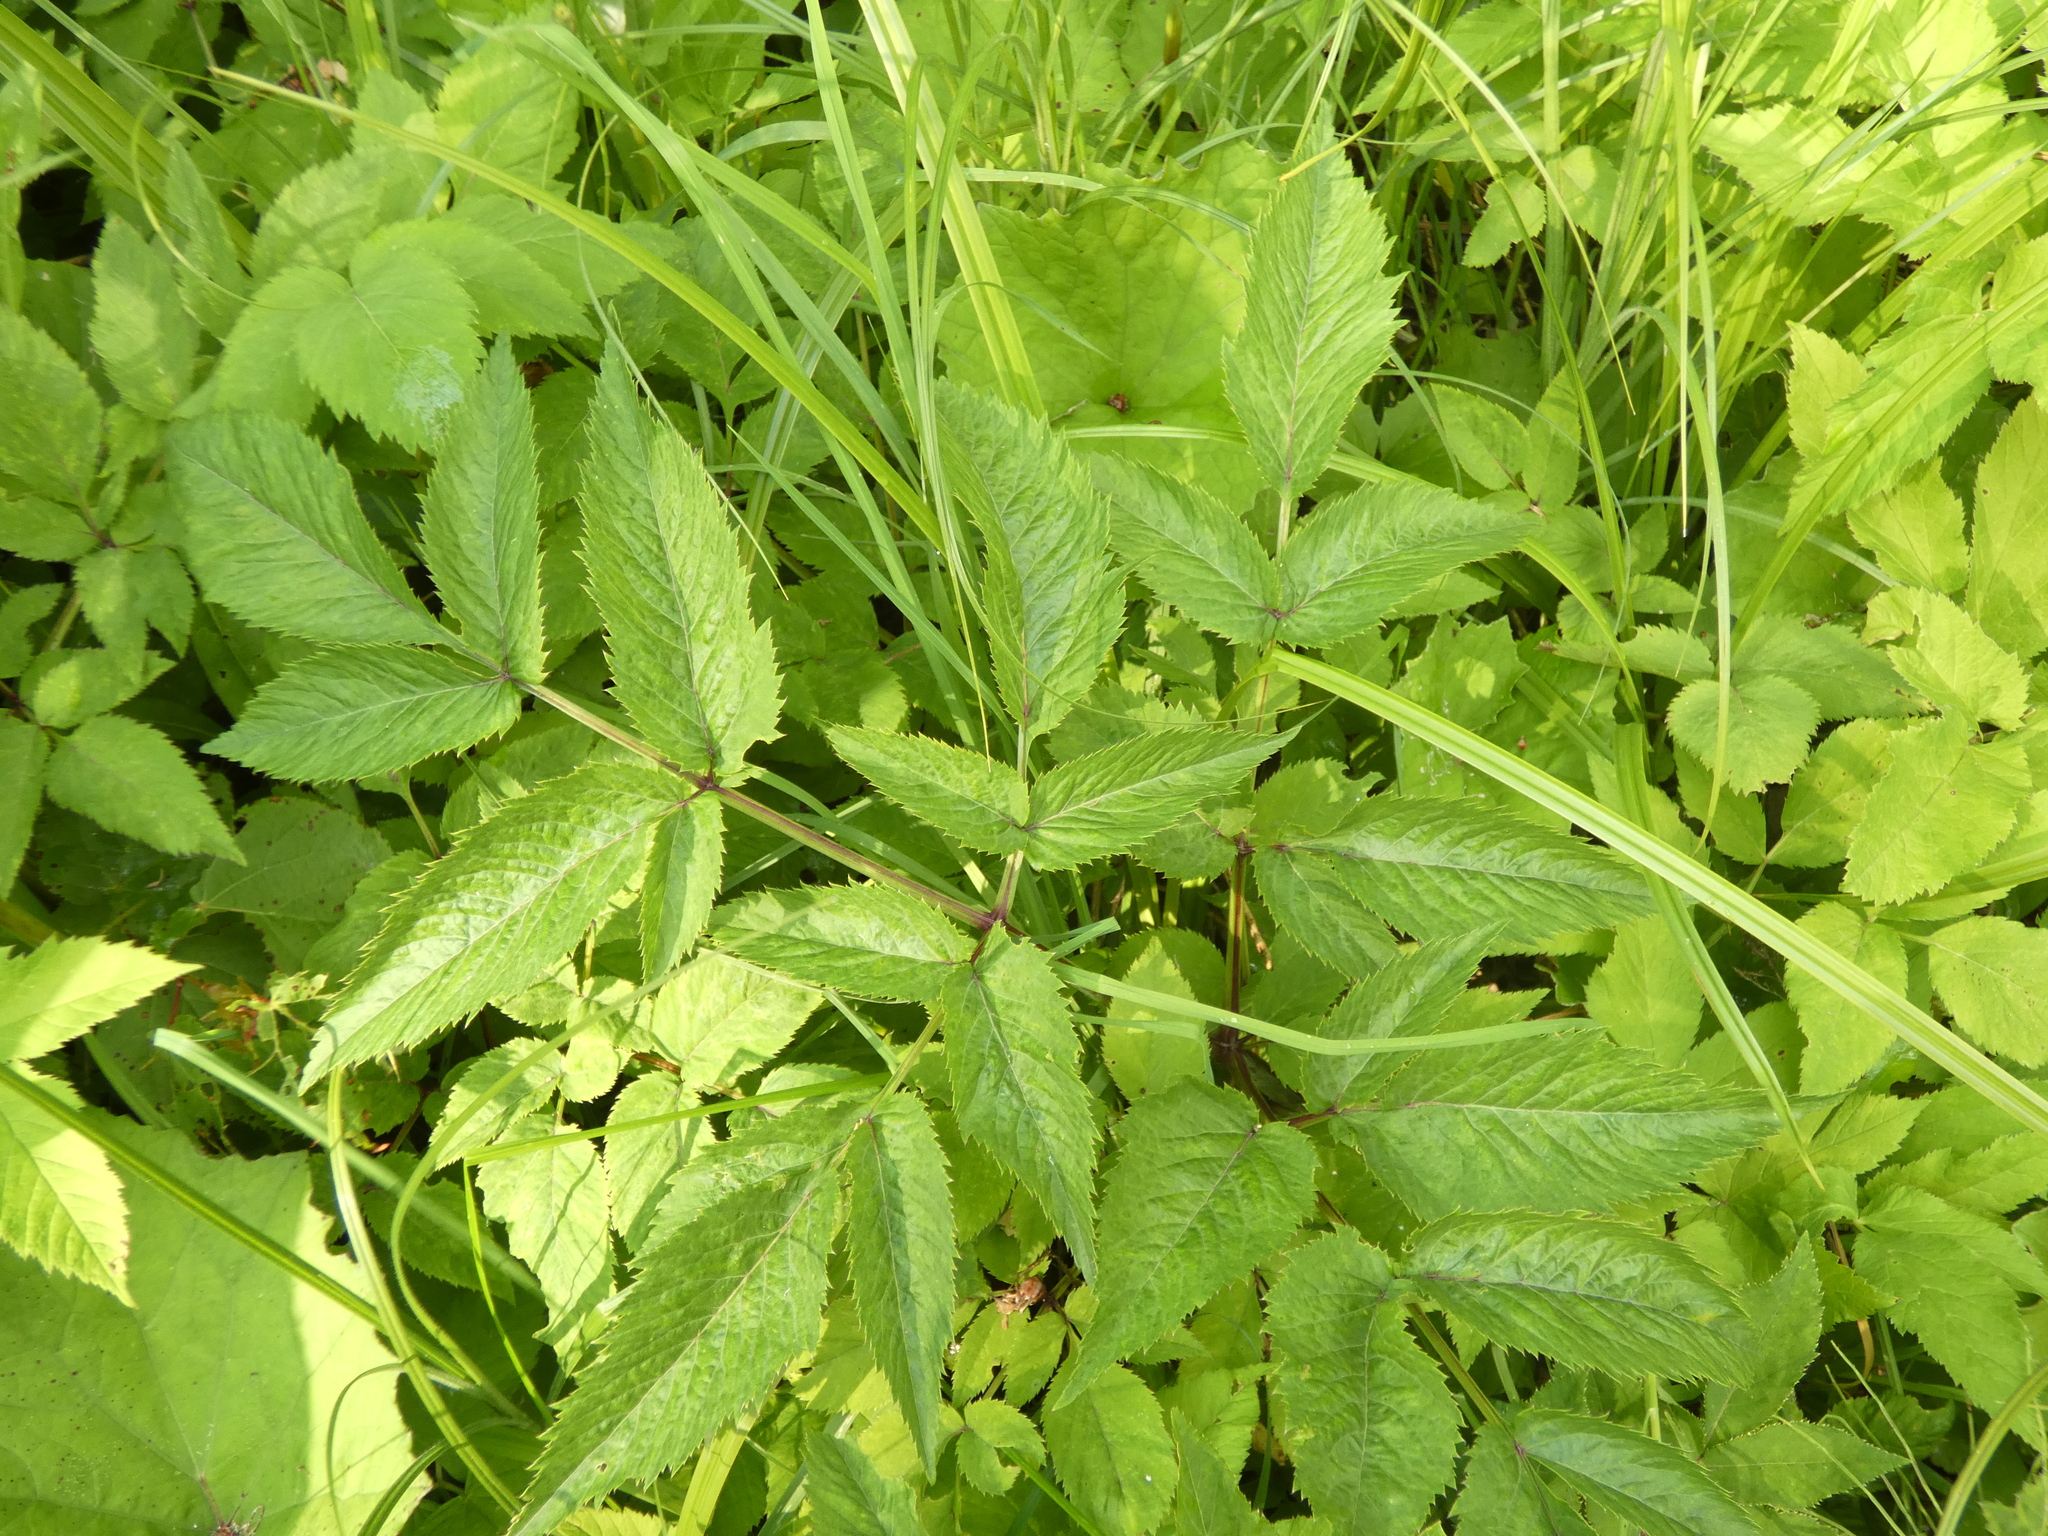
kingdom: Plantae
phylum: Tracheophyta
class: Magnoliopsida
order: Apiales
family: Apiaceae
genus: Angelica
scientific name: Angelica sylvestris
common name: Wild angelica
